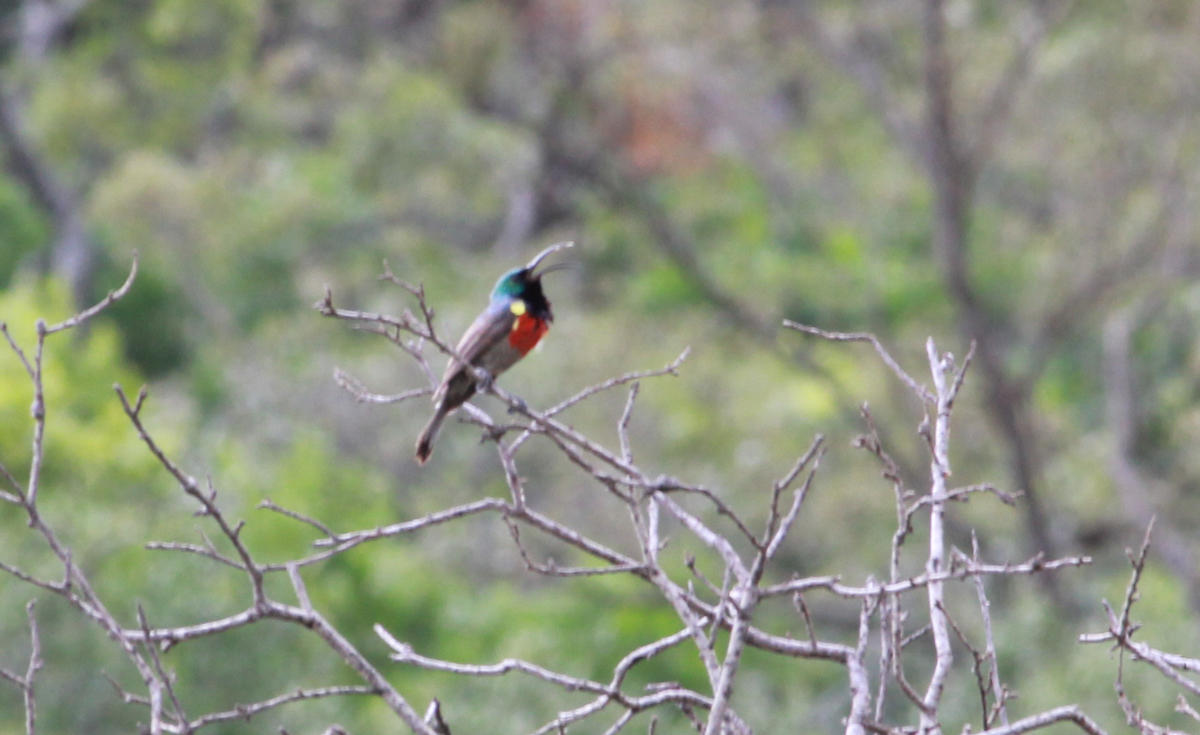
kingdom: Animalia
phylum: Chordata
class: Aves
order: Passeriformes
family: Nectariniidae
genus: Cinnyris
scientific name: Cinnyris afer
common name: Greater double-collared sunbird
